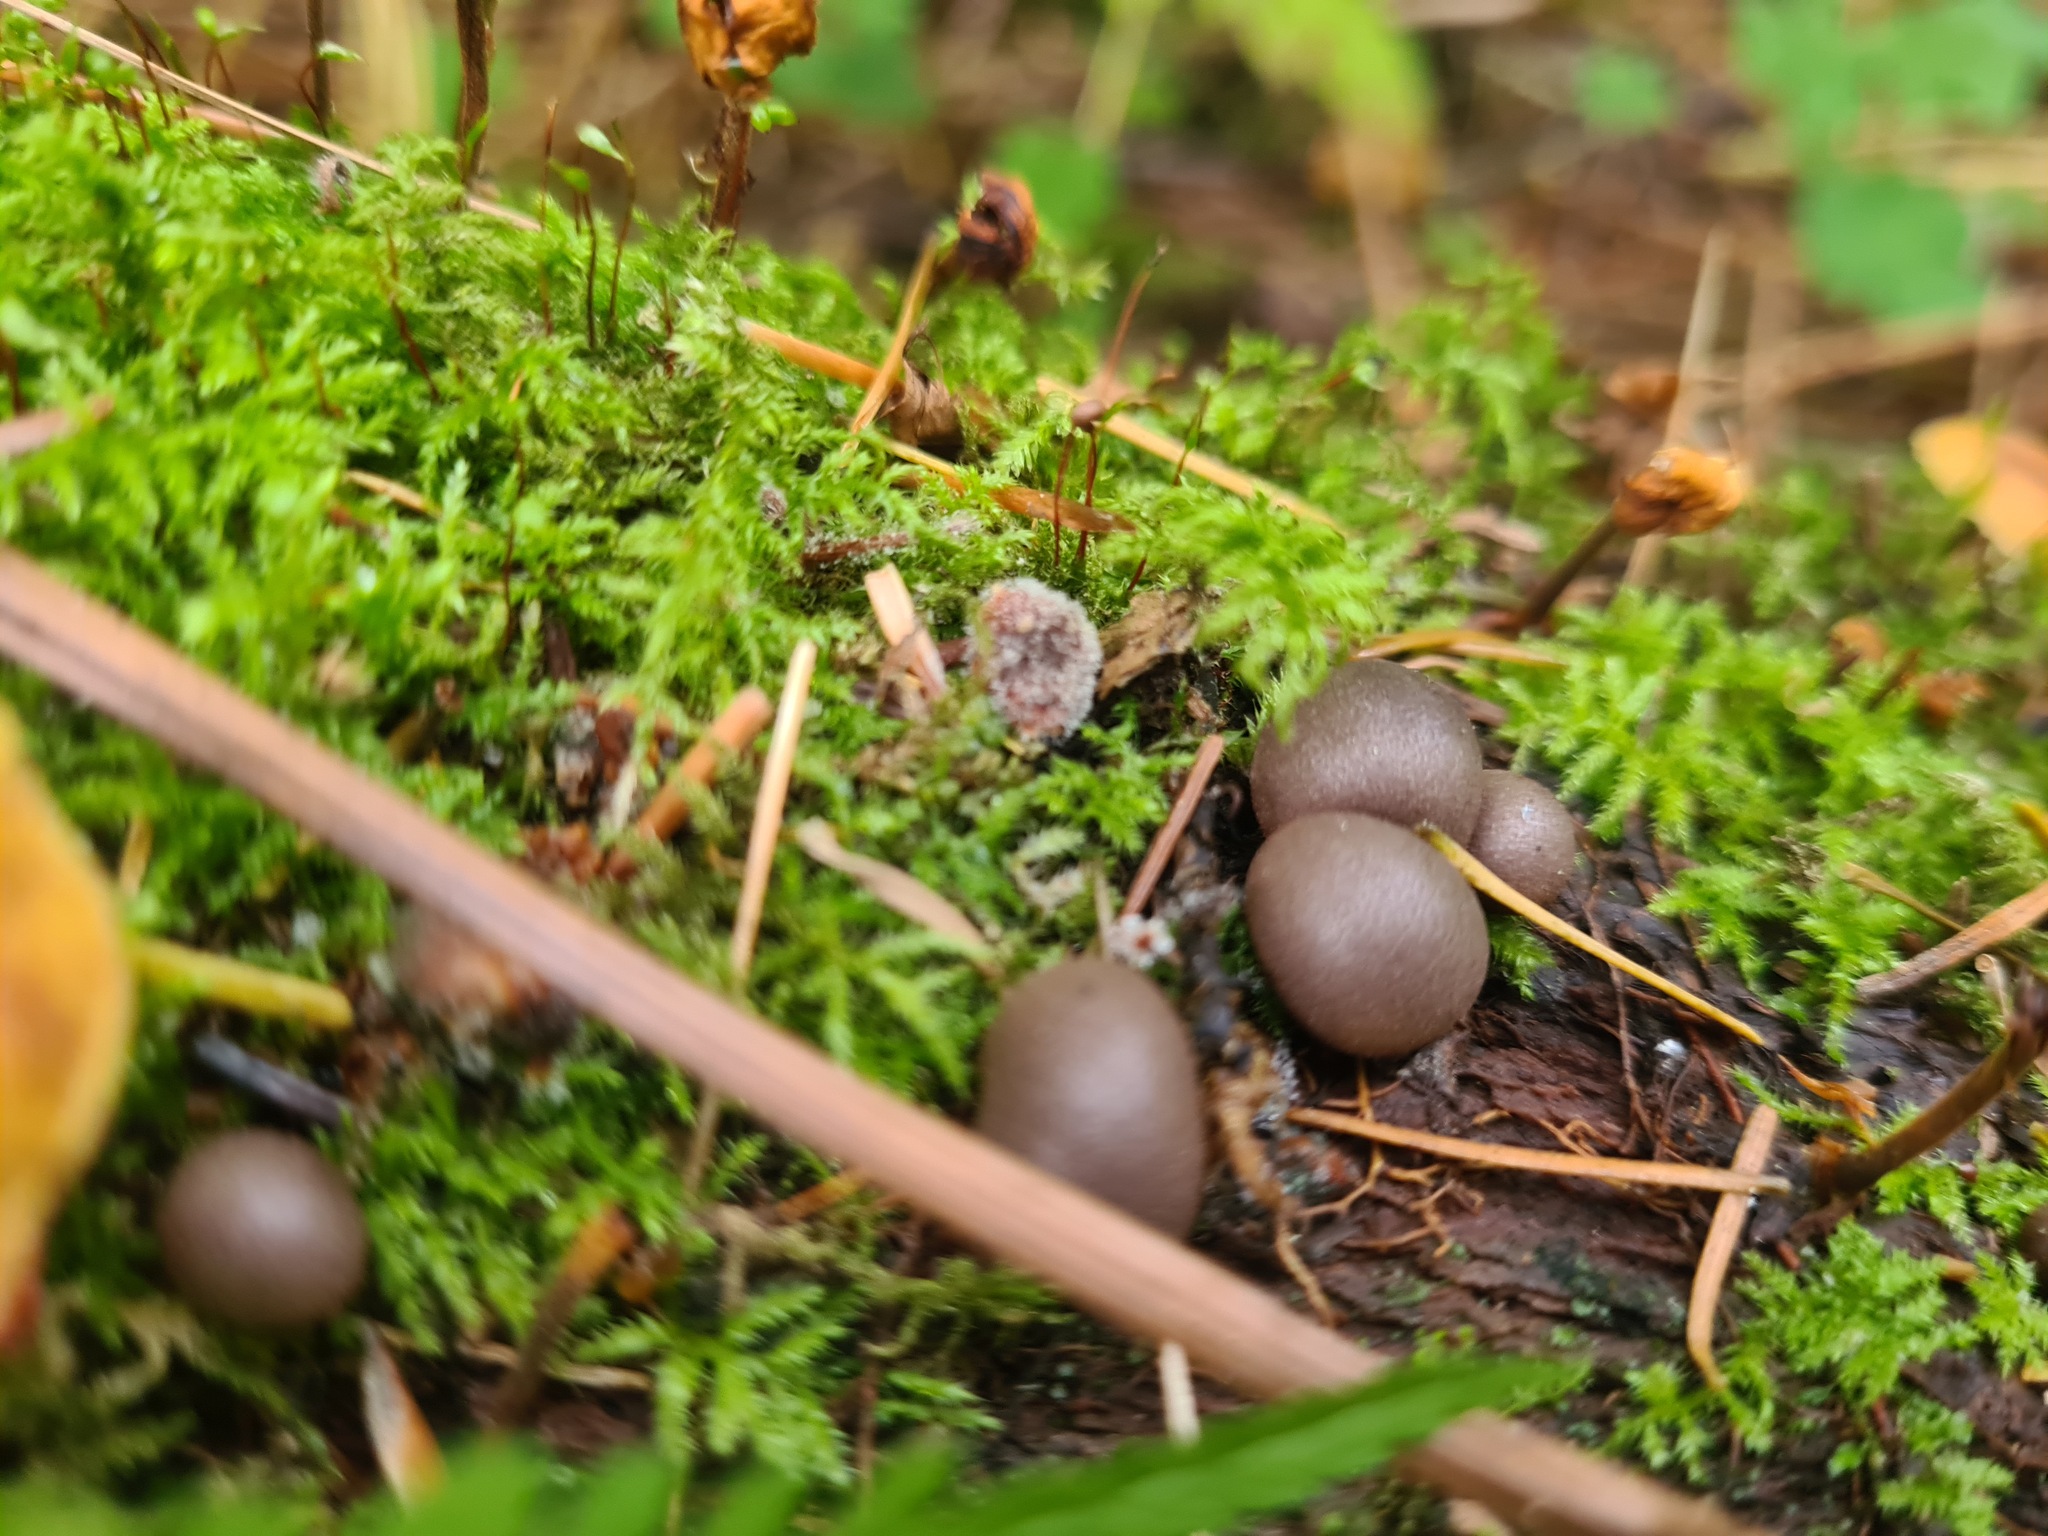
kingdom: Protozoa
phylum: Mycetozoa
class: Myxomycetes
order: Cribrariales
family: Tubiferaceae
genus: Lycogala
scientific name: Lycogala epidendrum
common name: Wolf's milk
